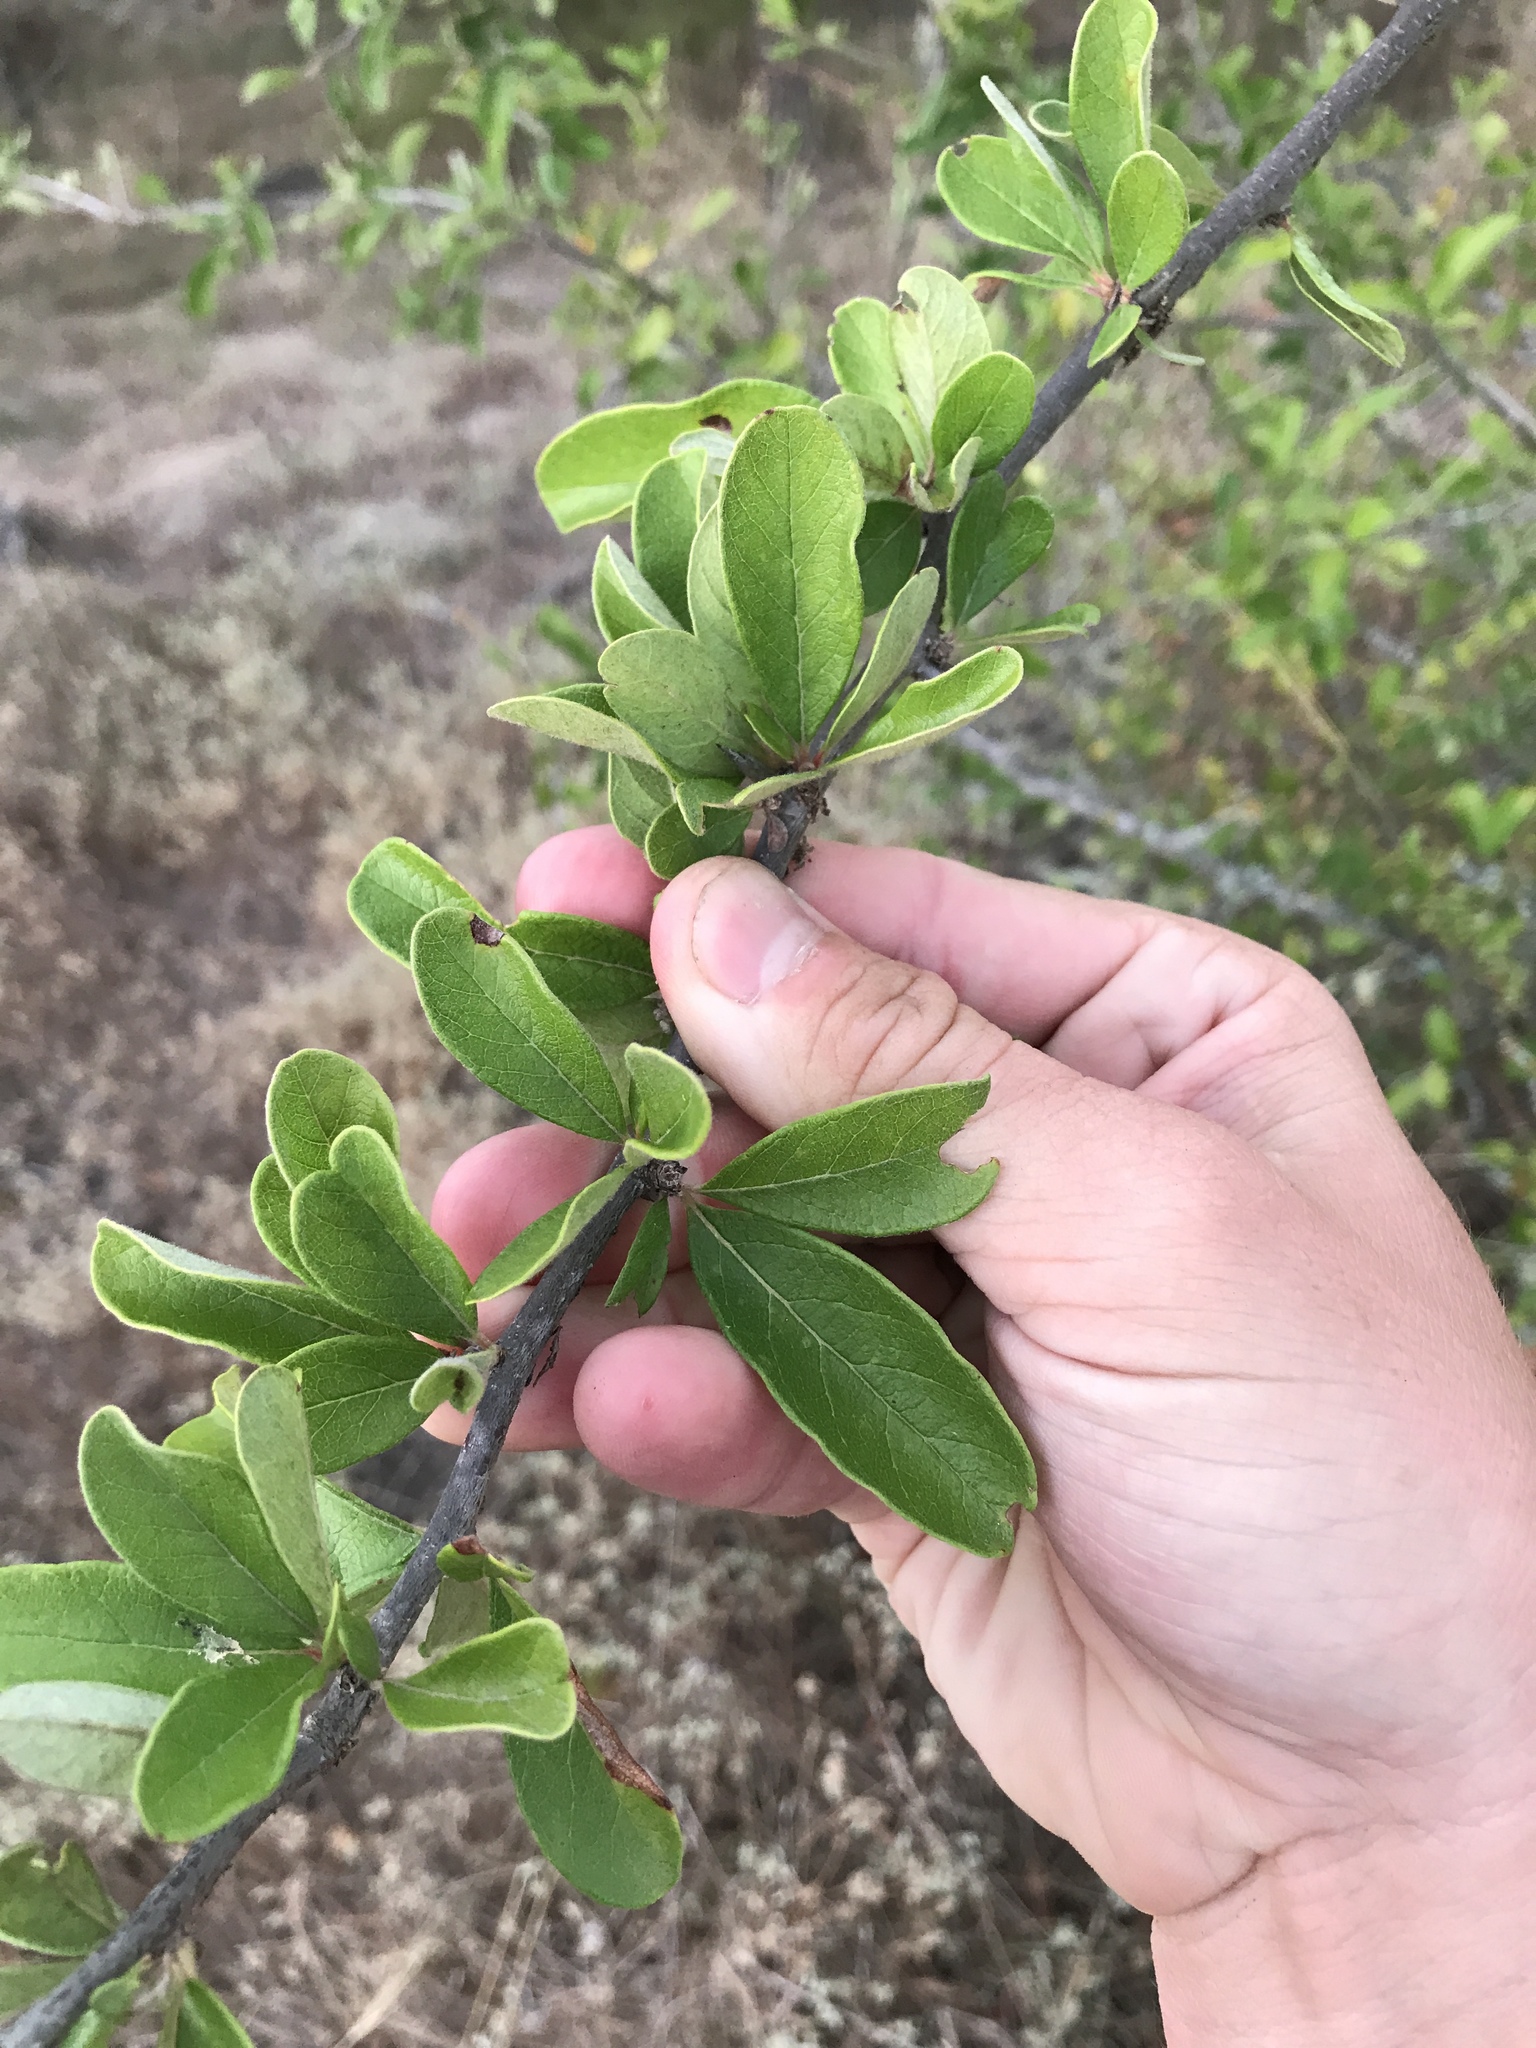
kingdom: Plantae
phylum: Tracheophyta
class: Magnoliopsida
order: Ericales
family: Sapotaceae
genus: Sideroxylon
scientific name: Sideroxylon lanuginosum
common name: Chittamwood
